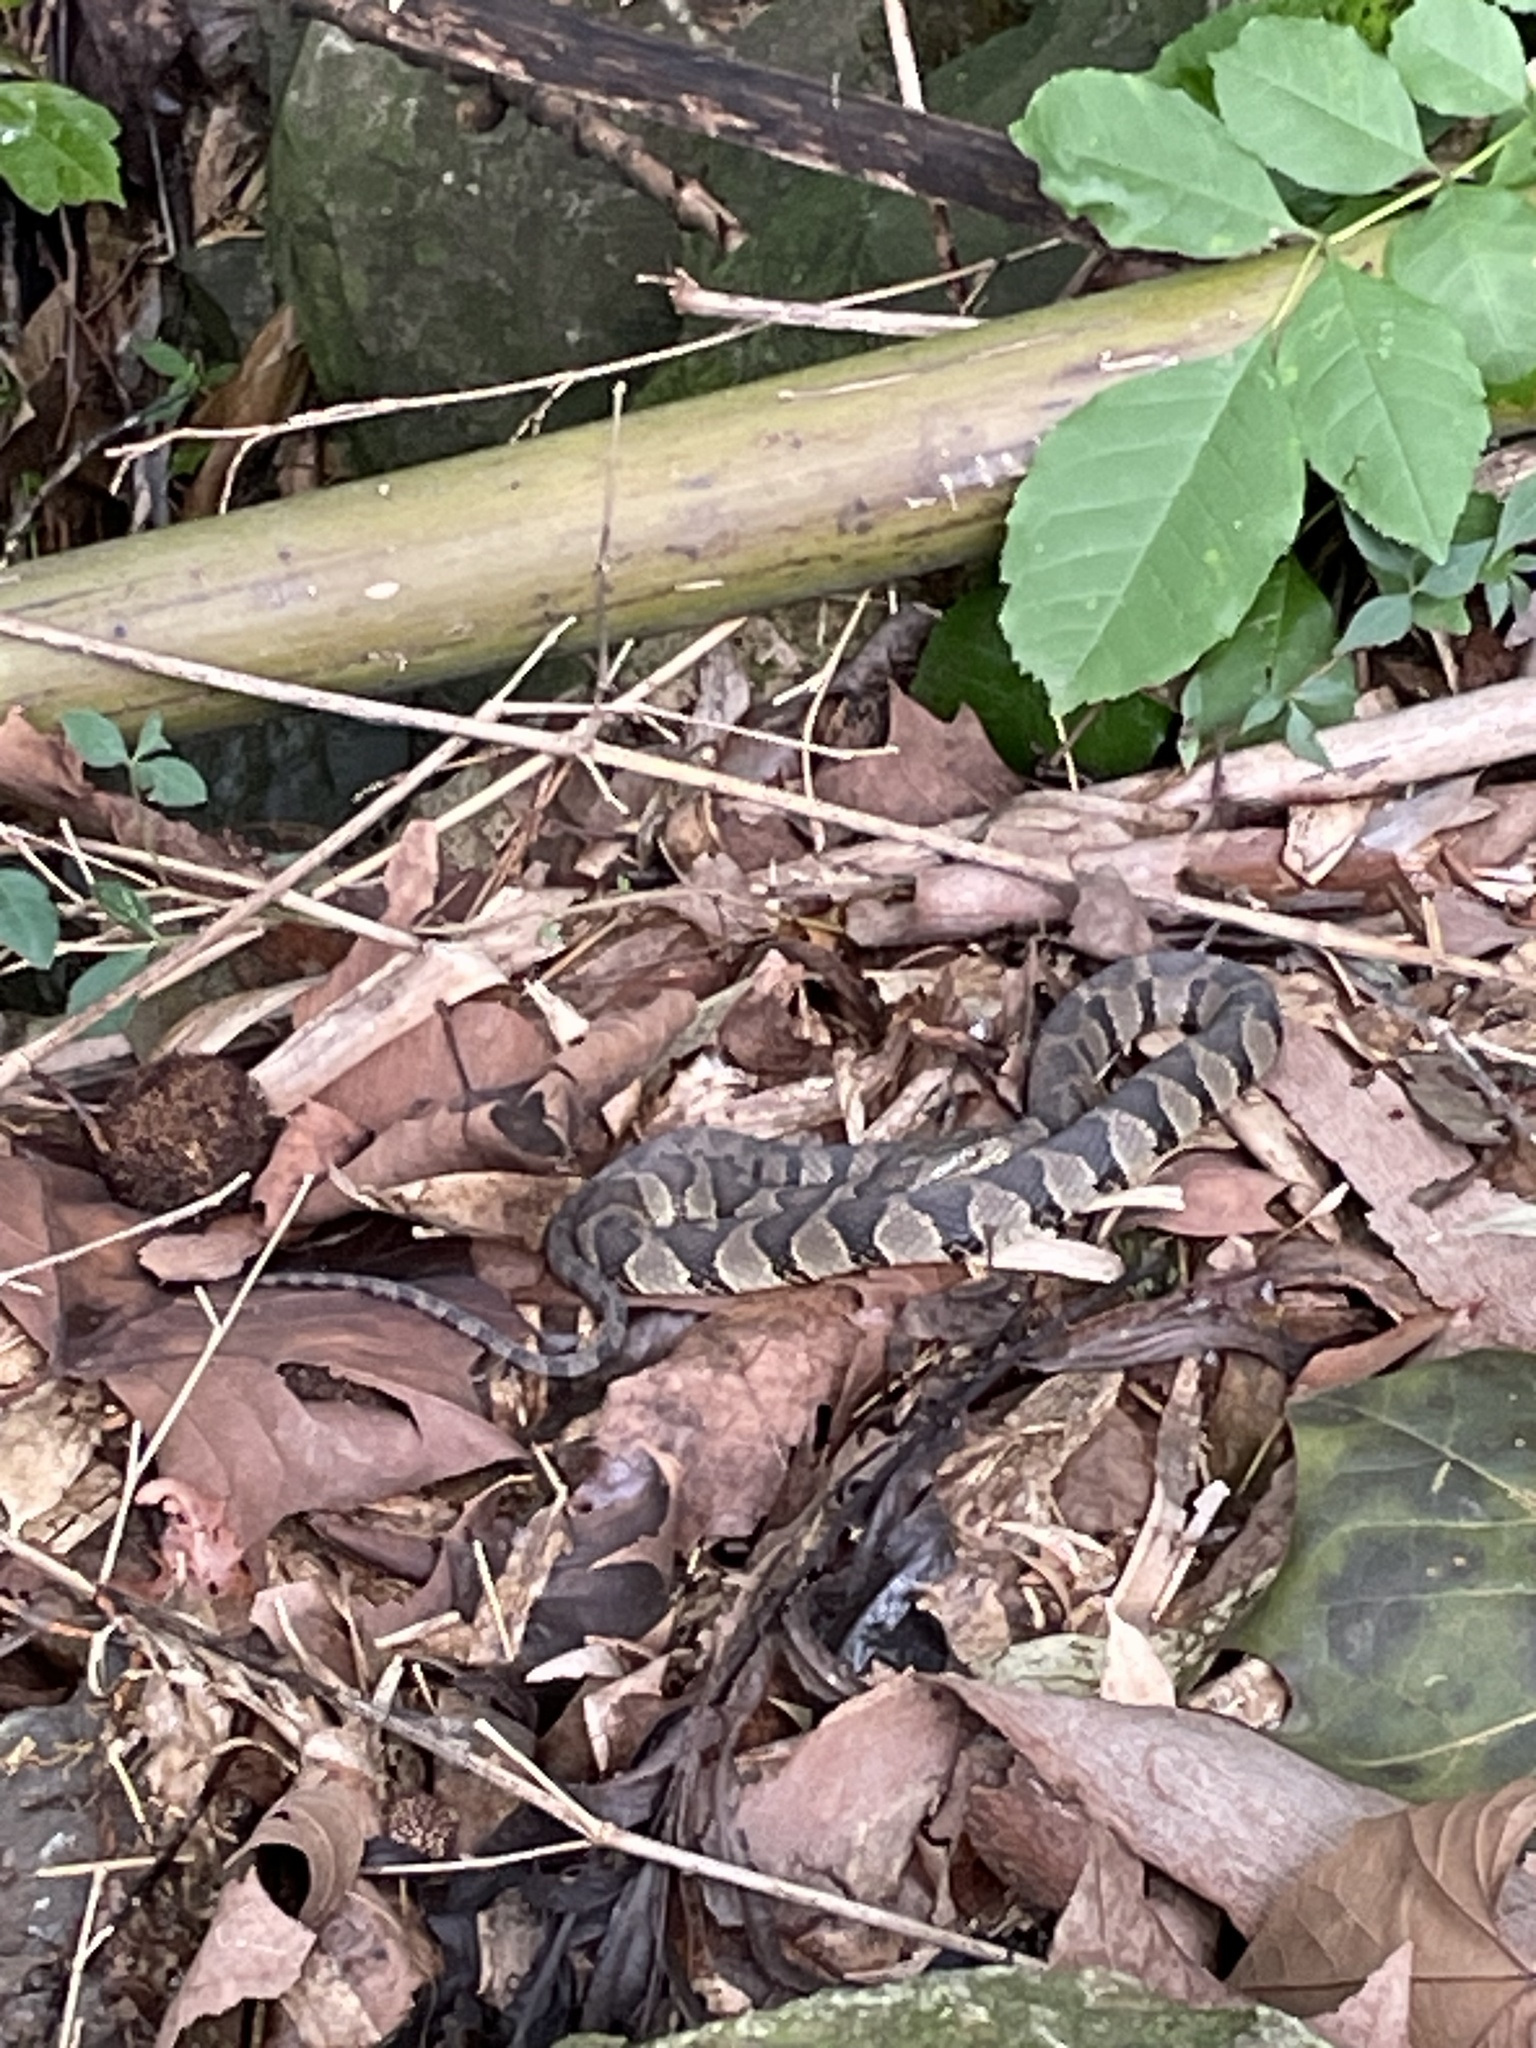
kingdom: Animalia
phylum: Chordata
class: Squamata
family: Colubridae
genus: Nerodia
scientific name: Nerodia sipedon
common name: Northern water snake
